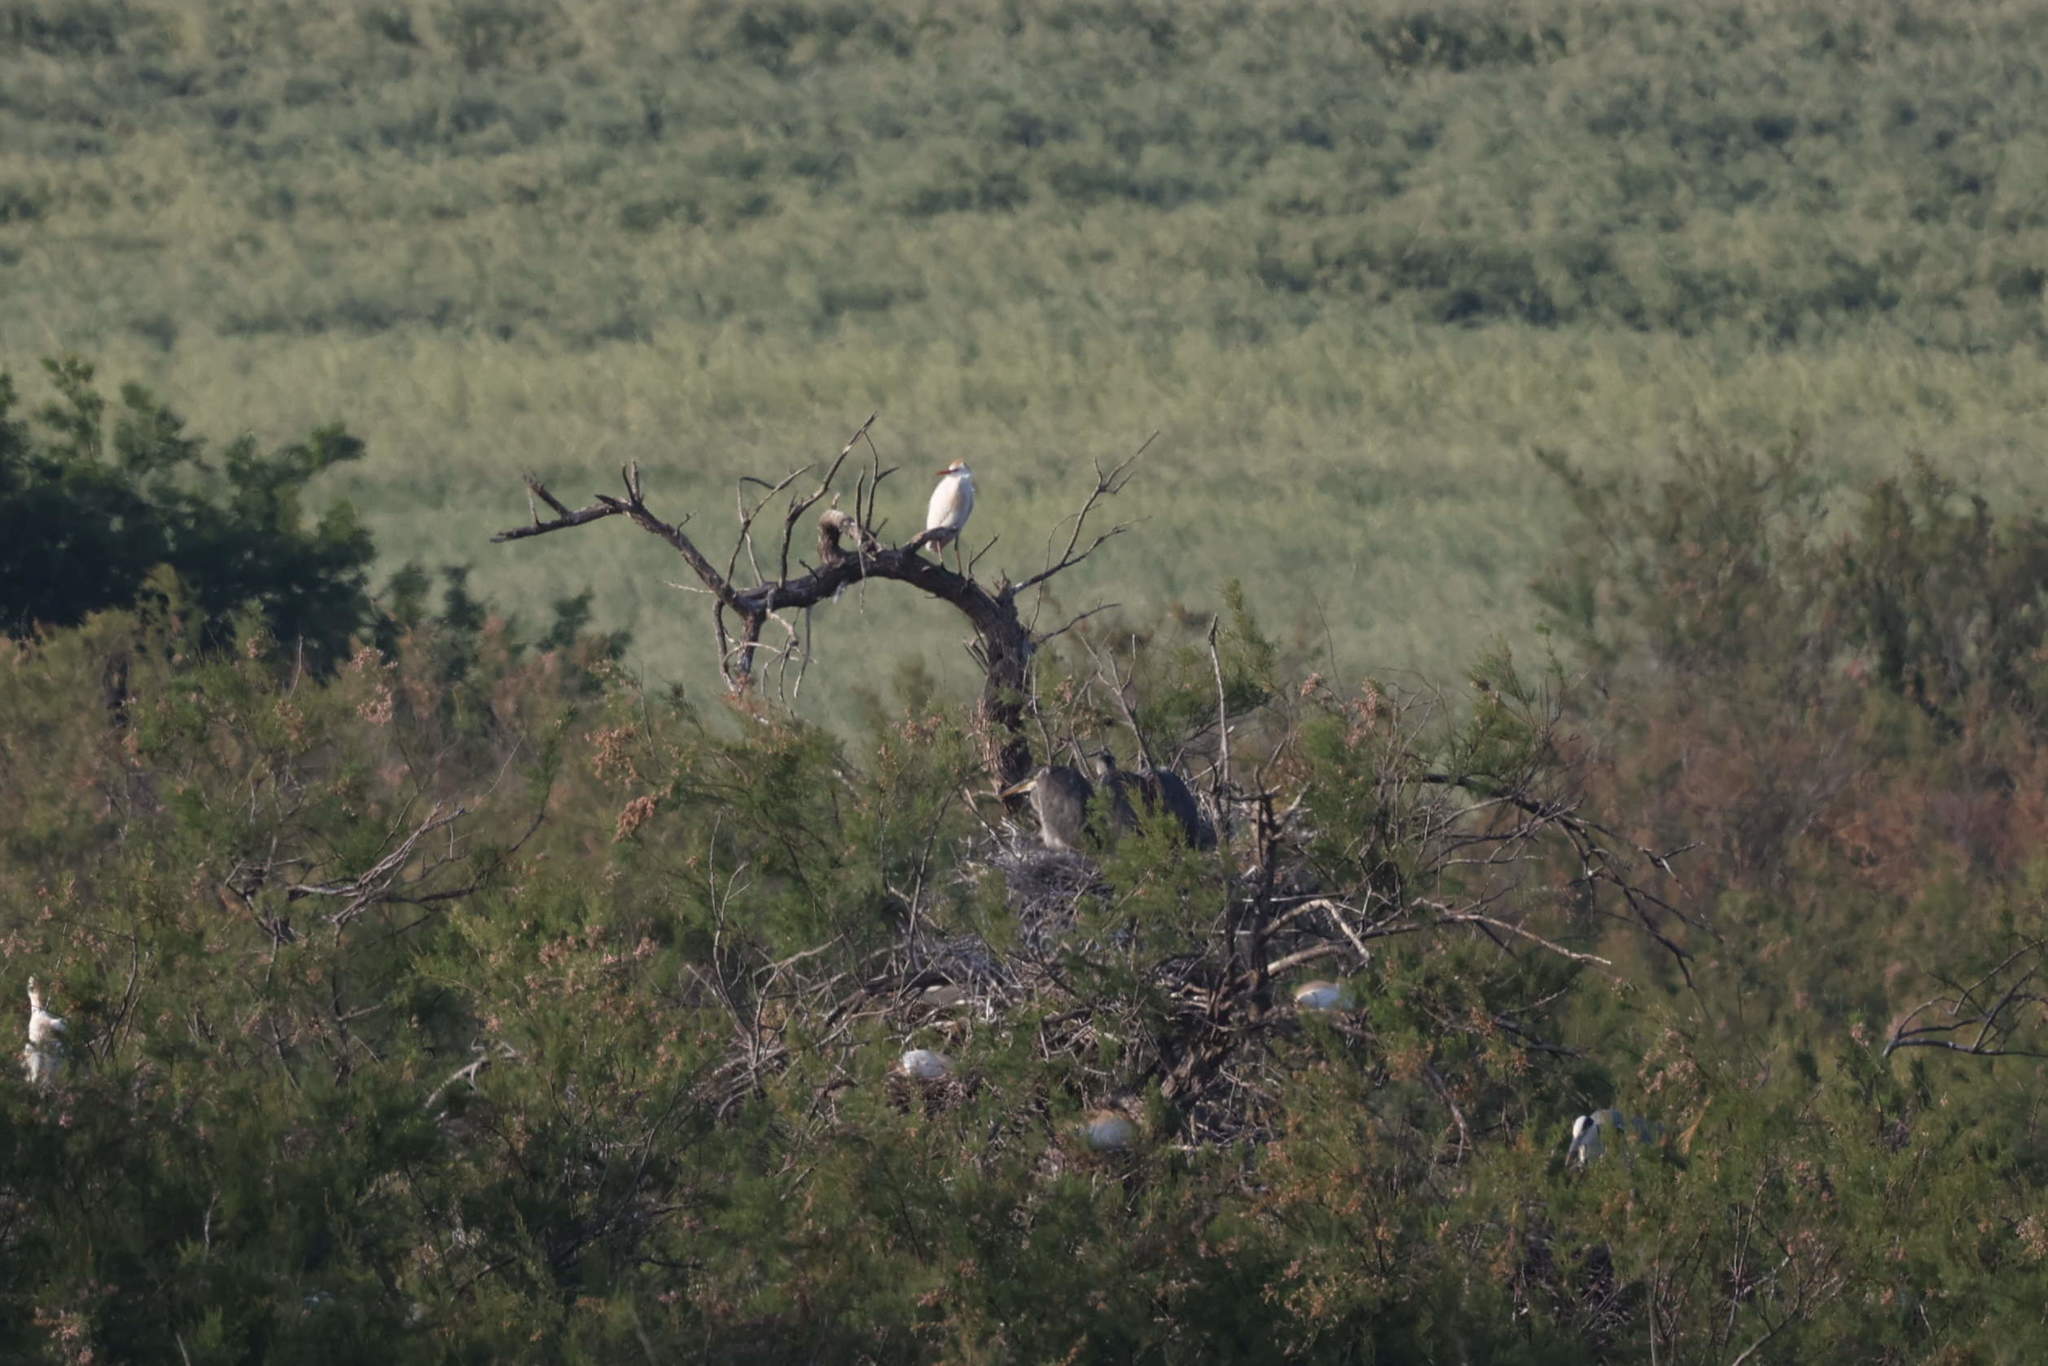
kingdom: Animalia
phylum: Chordata
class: Aves
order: Pelecaniformes
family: Ardeidae
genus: Ardea
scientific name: Ardea cinerea
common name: Grey heron
